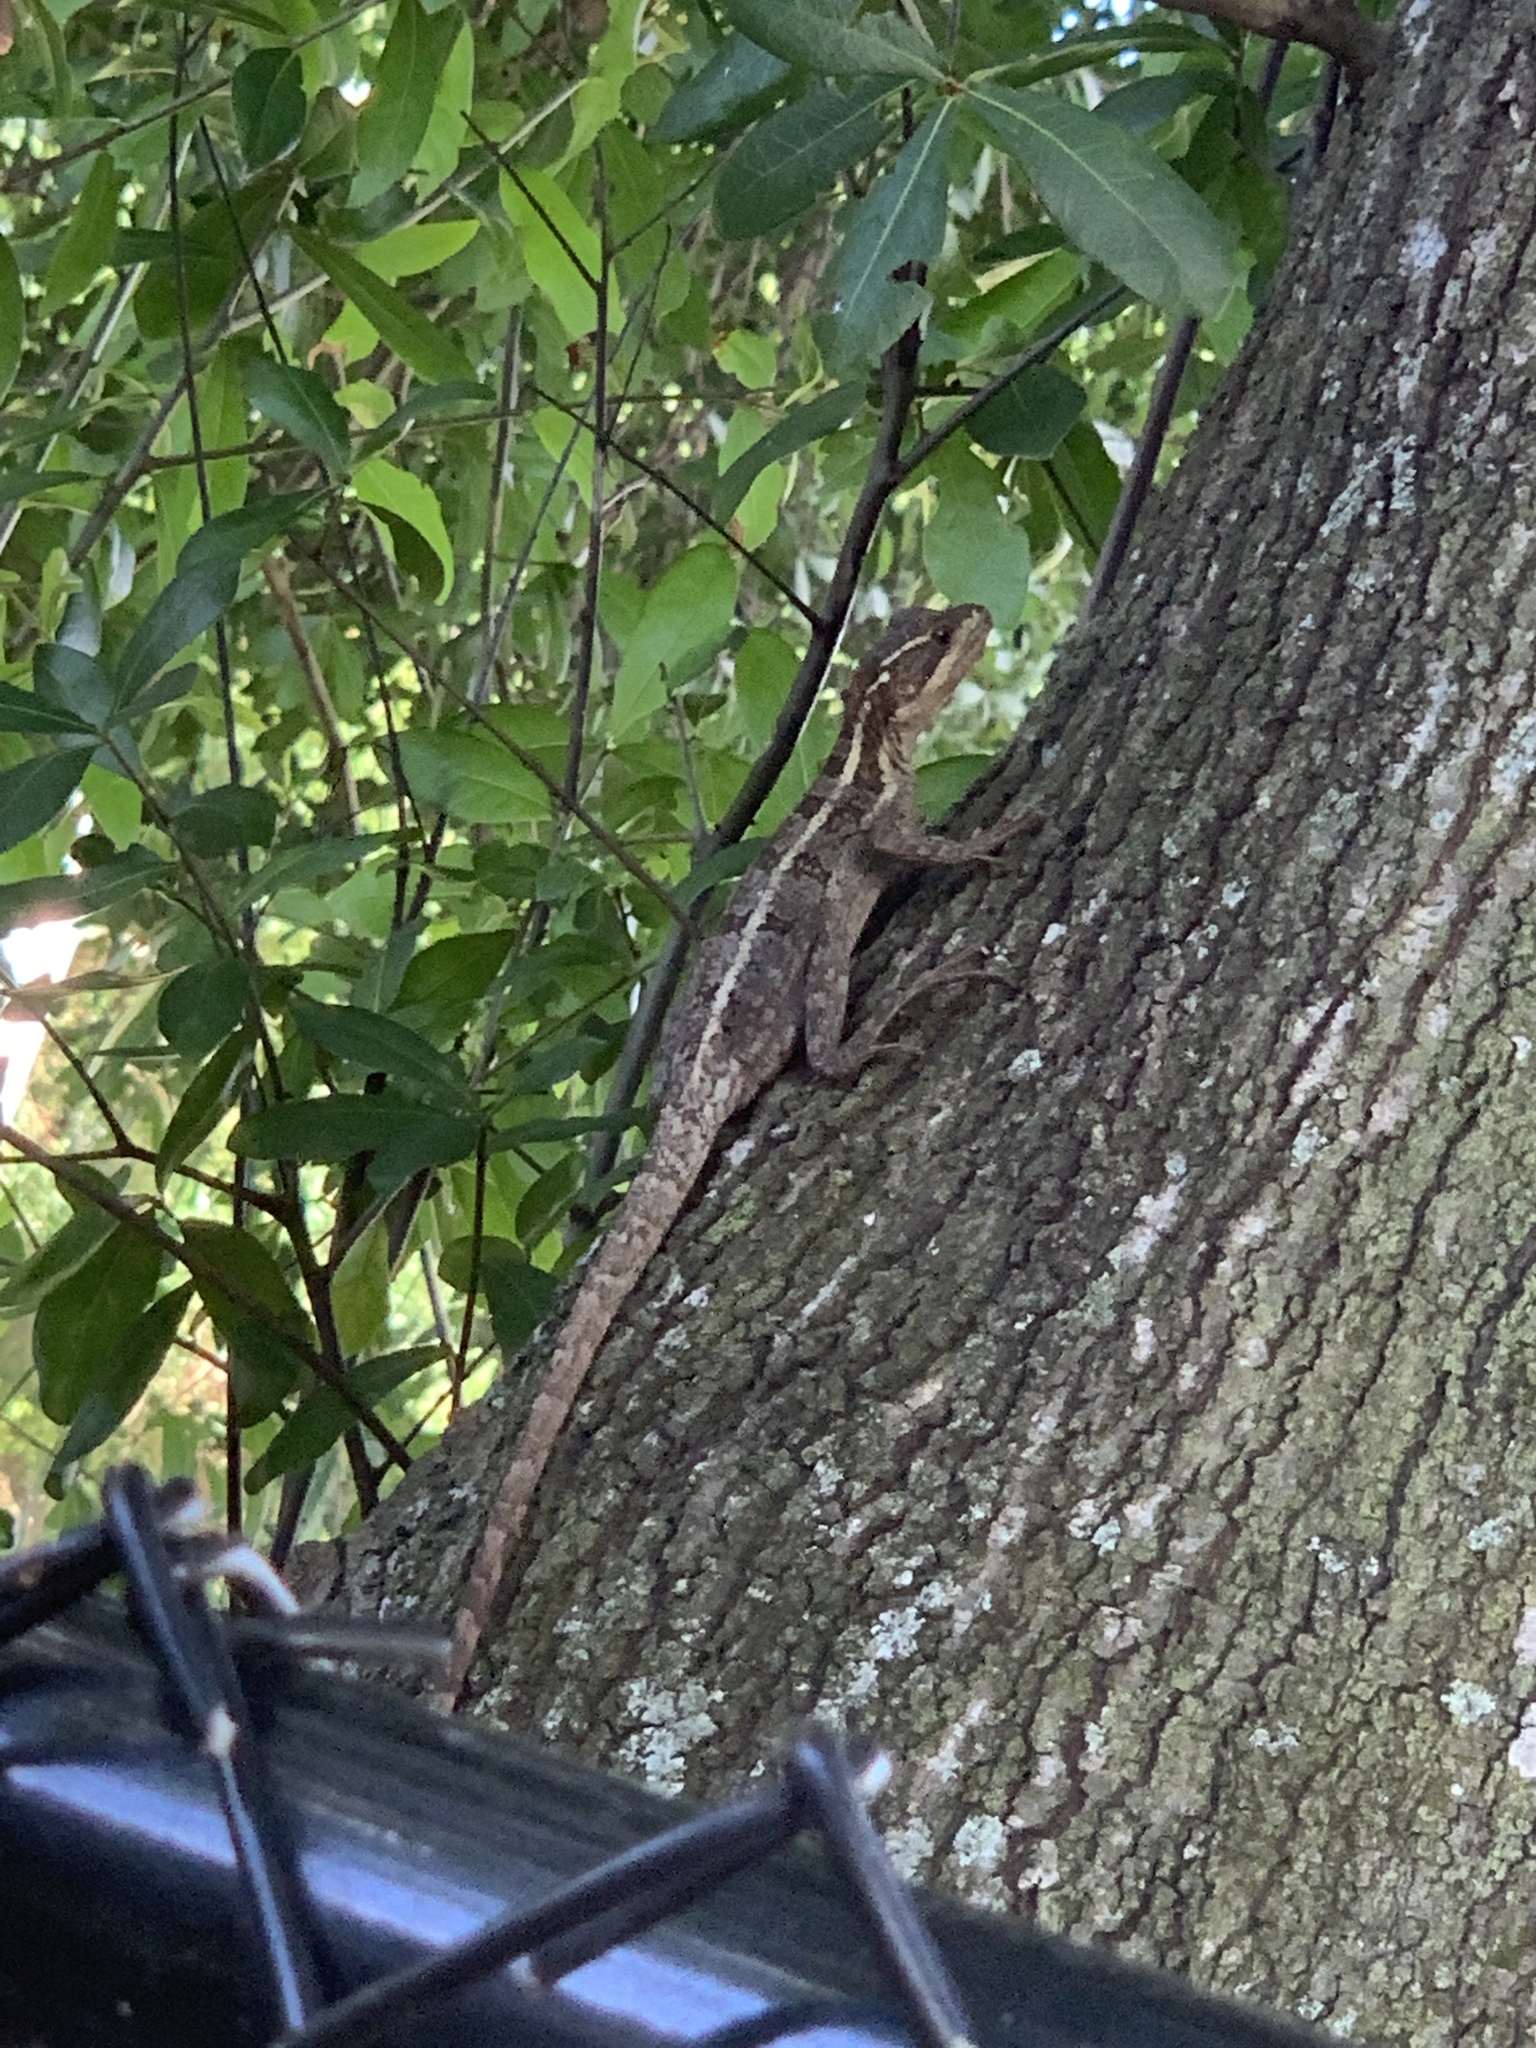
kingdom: Animalia
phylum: Chordata
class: Squamata
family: Corytophanidae
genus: Basiliscus
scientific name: Basiliscus vittatus
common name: Brown basilisk
